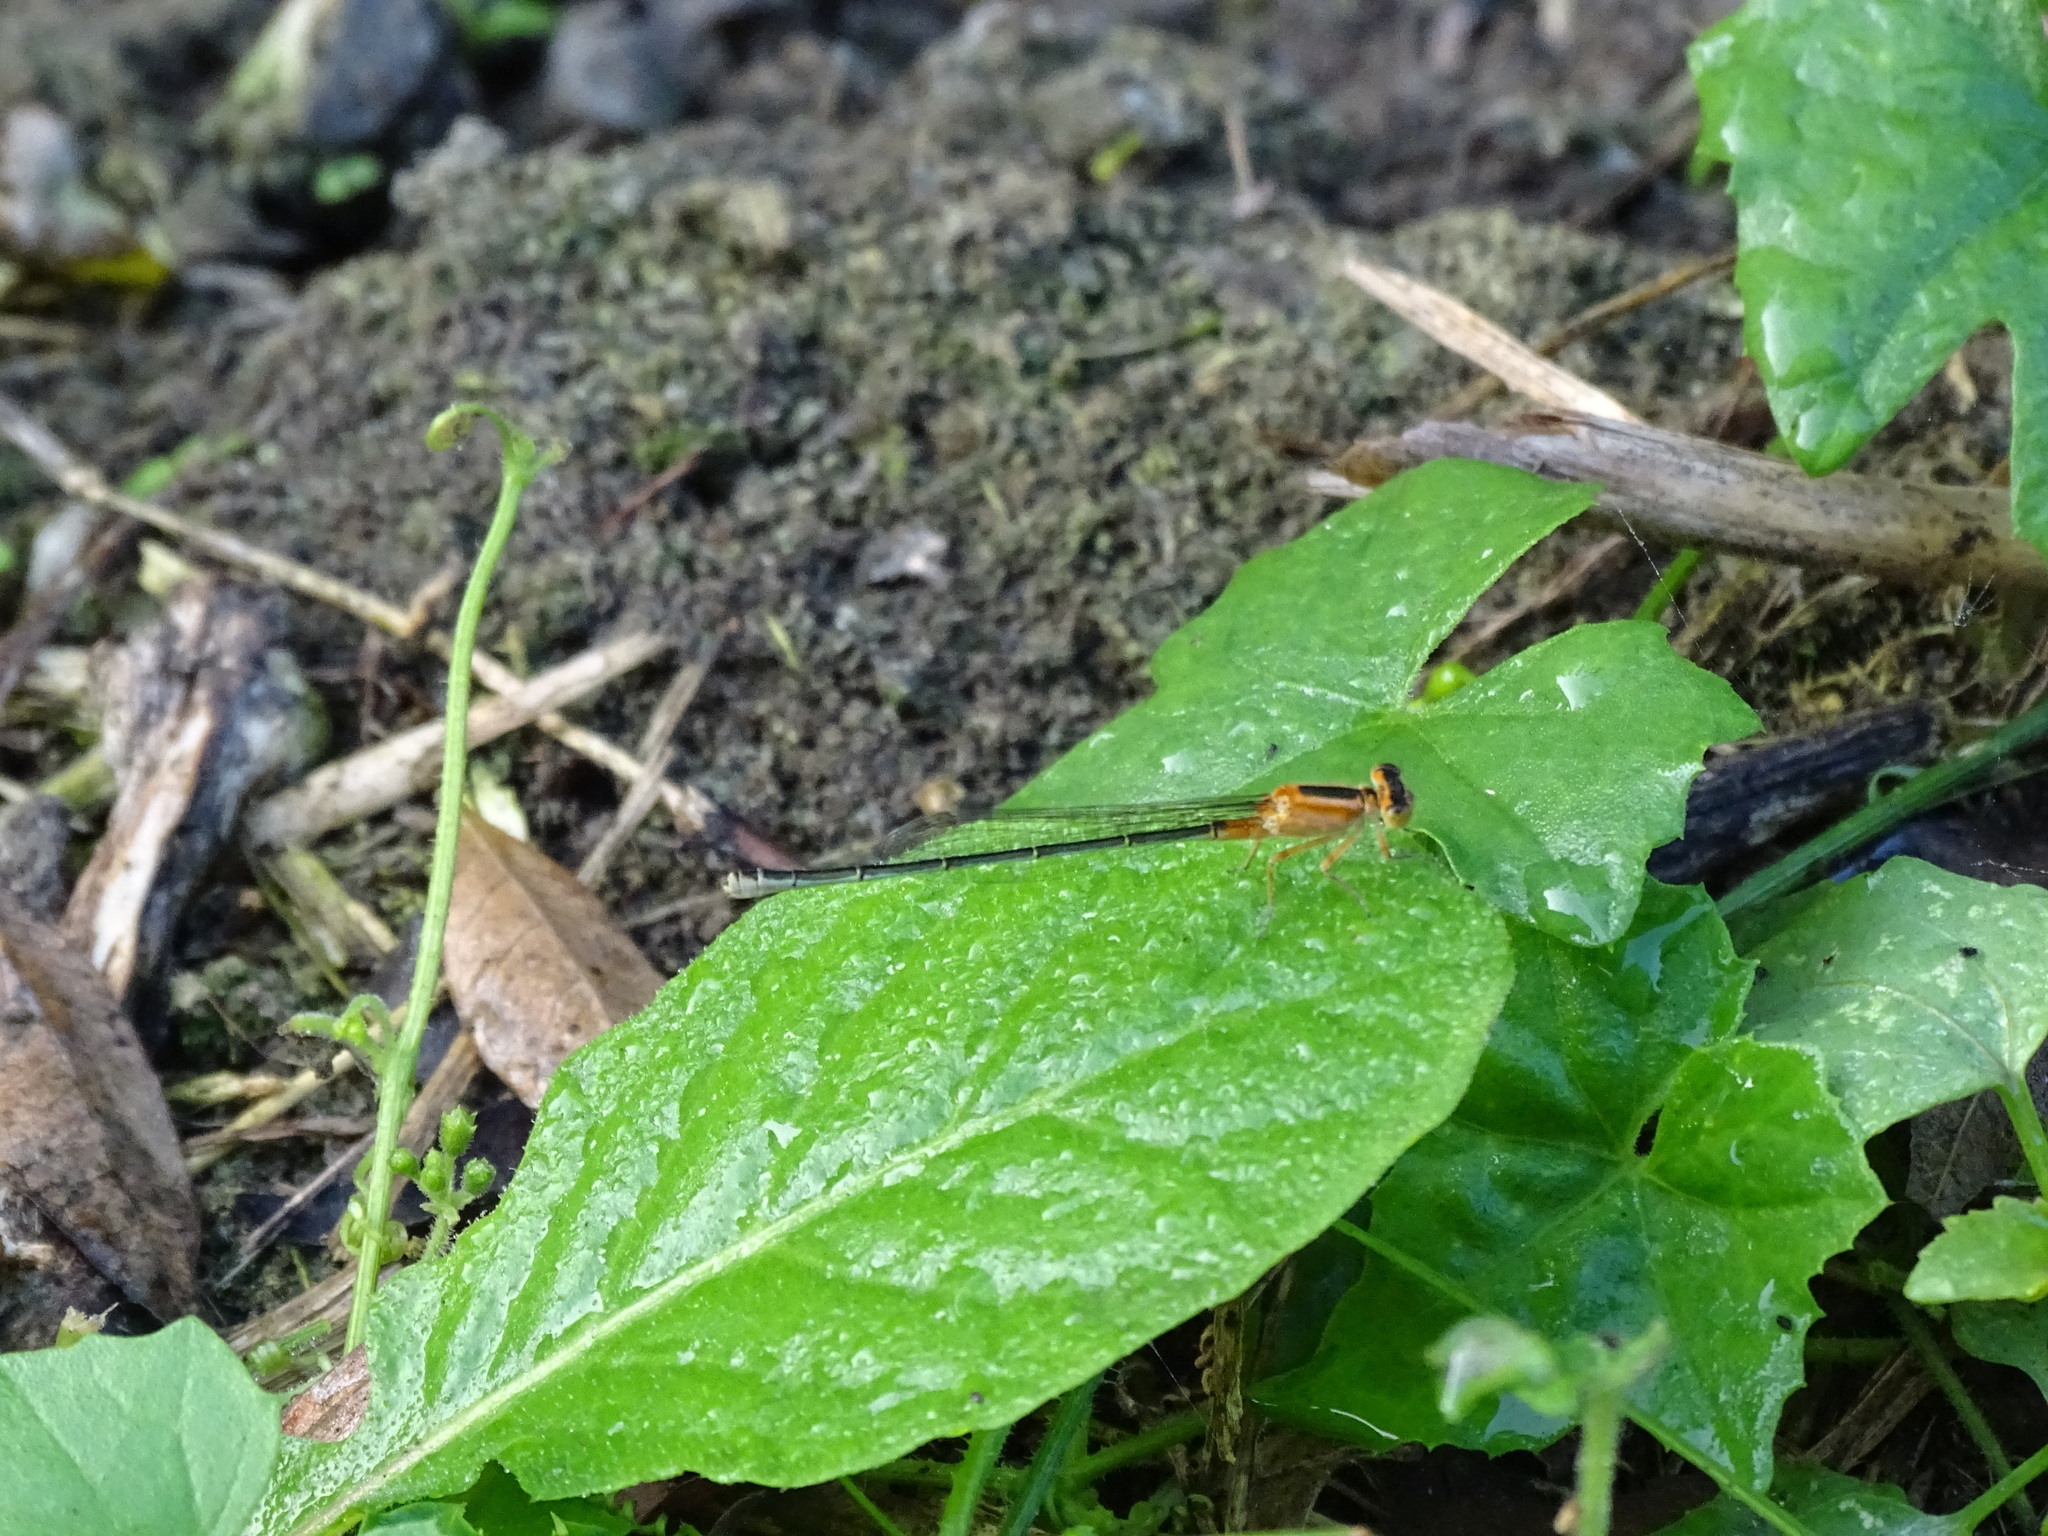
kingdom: Animalia
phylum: Arthropoda
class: Insecta
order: Odonata
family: Coenagrionidae
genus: Ischnura
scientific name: Ischnura senegalensis
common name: Tropical bluetail
